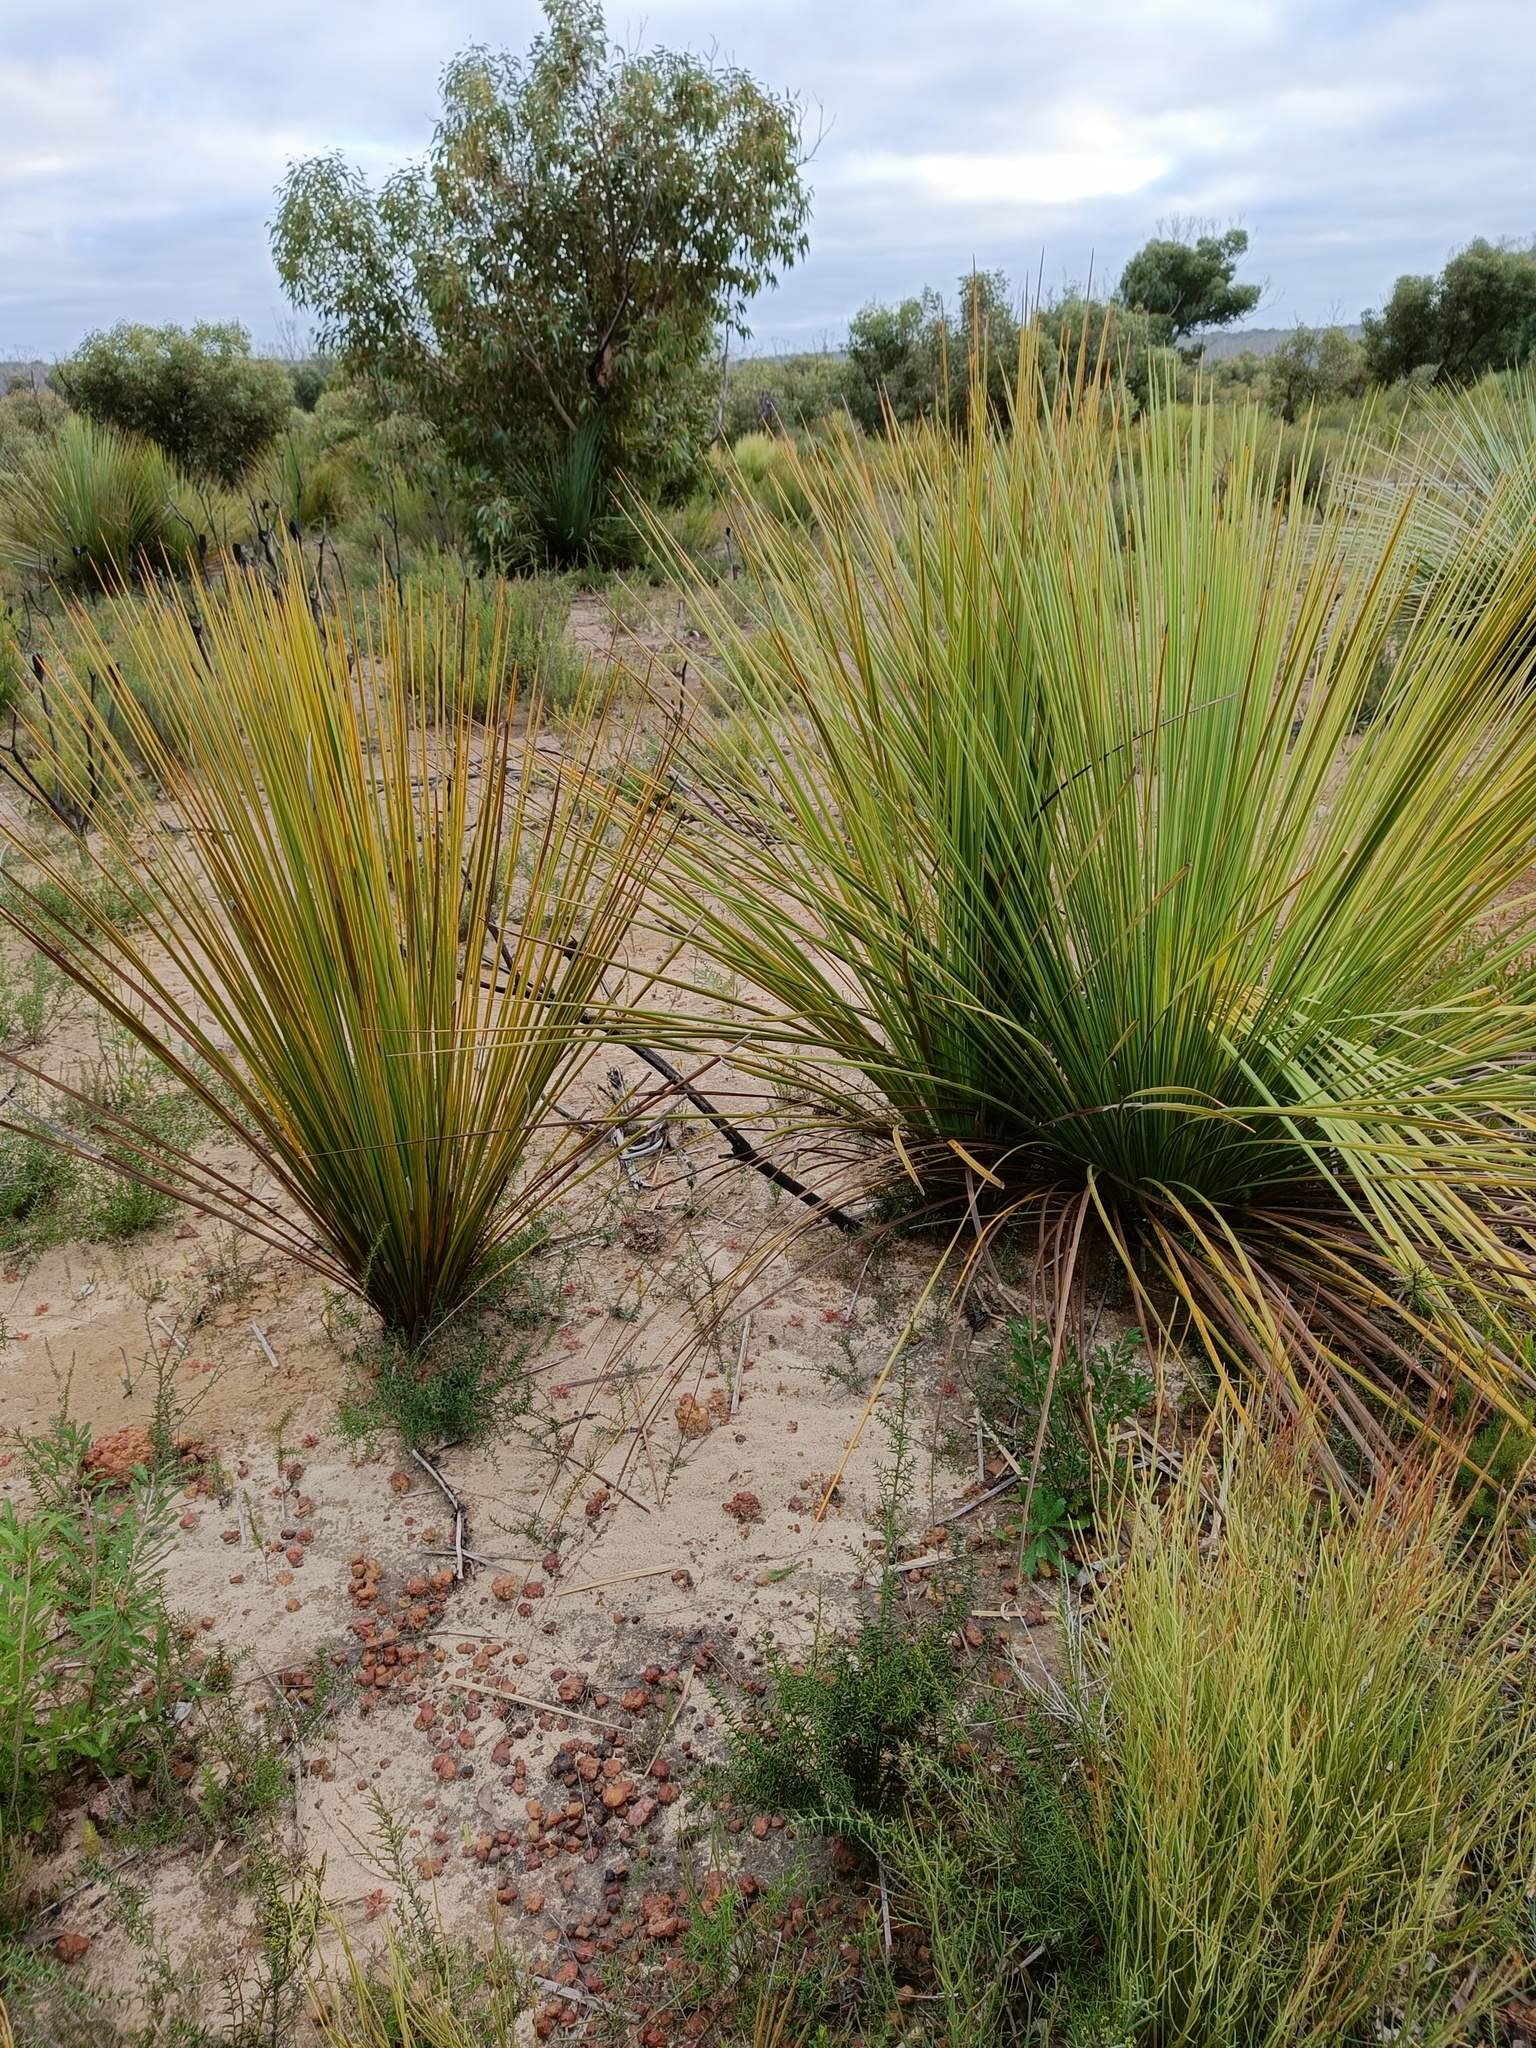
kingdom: Plantae
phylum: Tracheophyta
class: Liliopsida
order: Asparagales
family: Asphodelaceae
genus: Xanthorrhoea
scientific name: Xanthorrhoea semiplana
